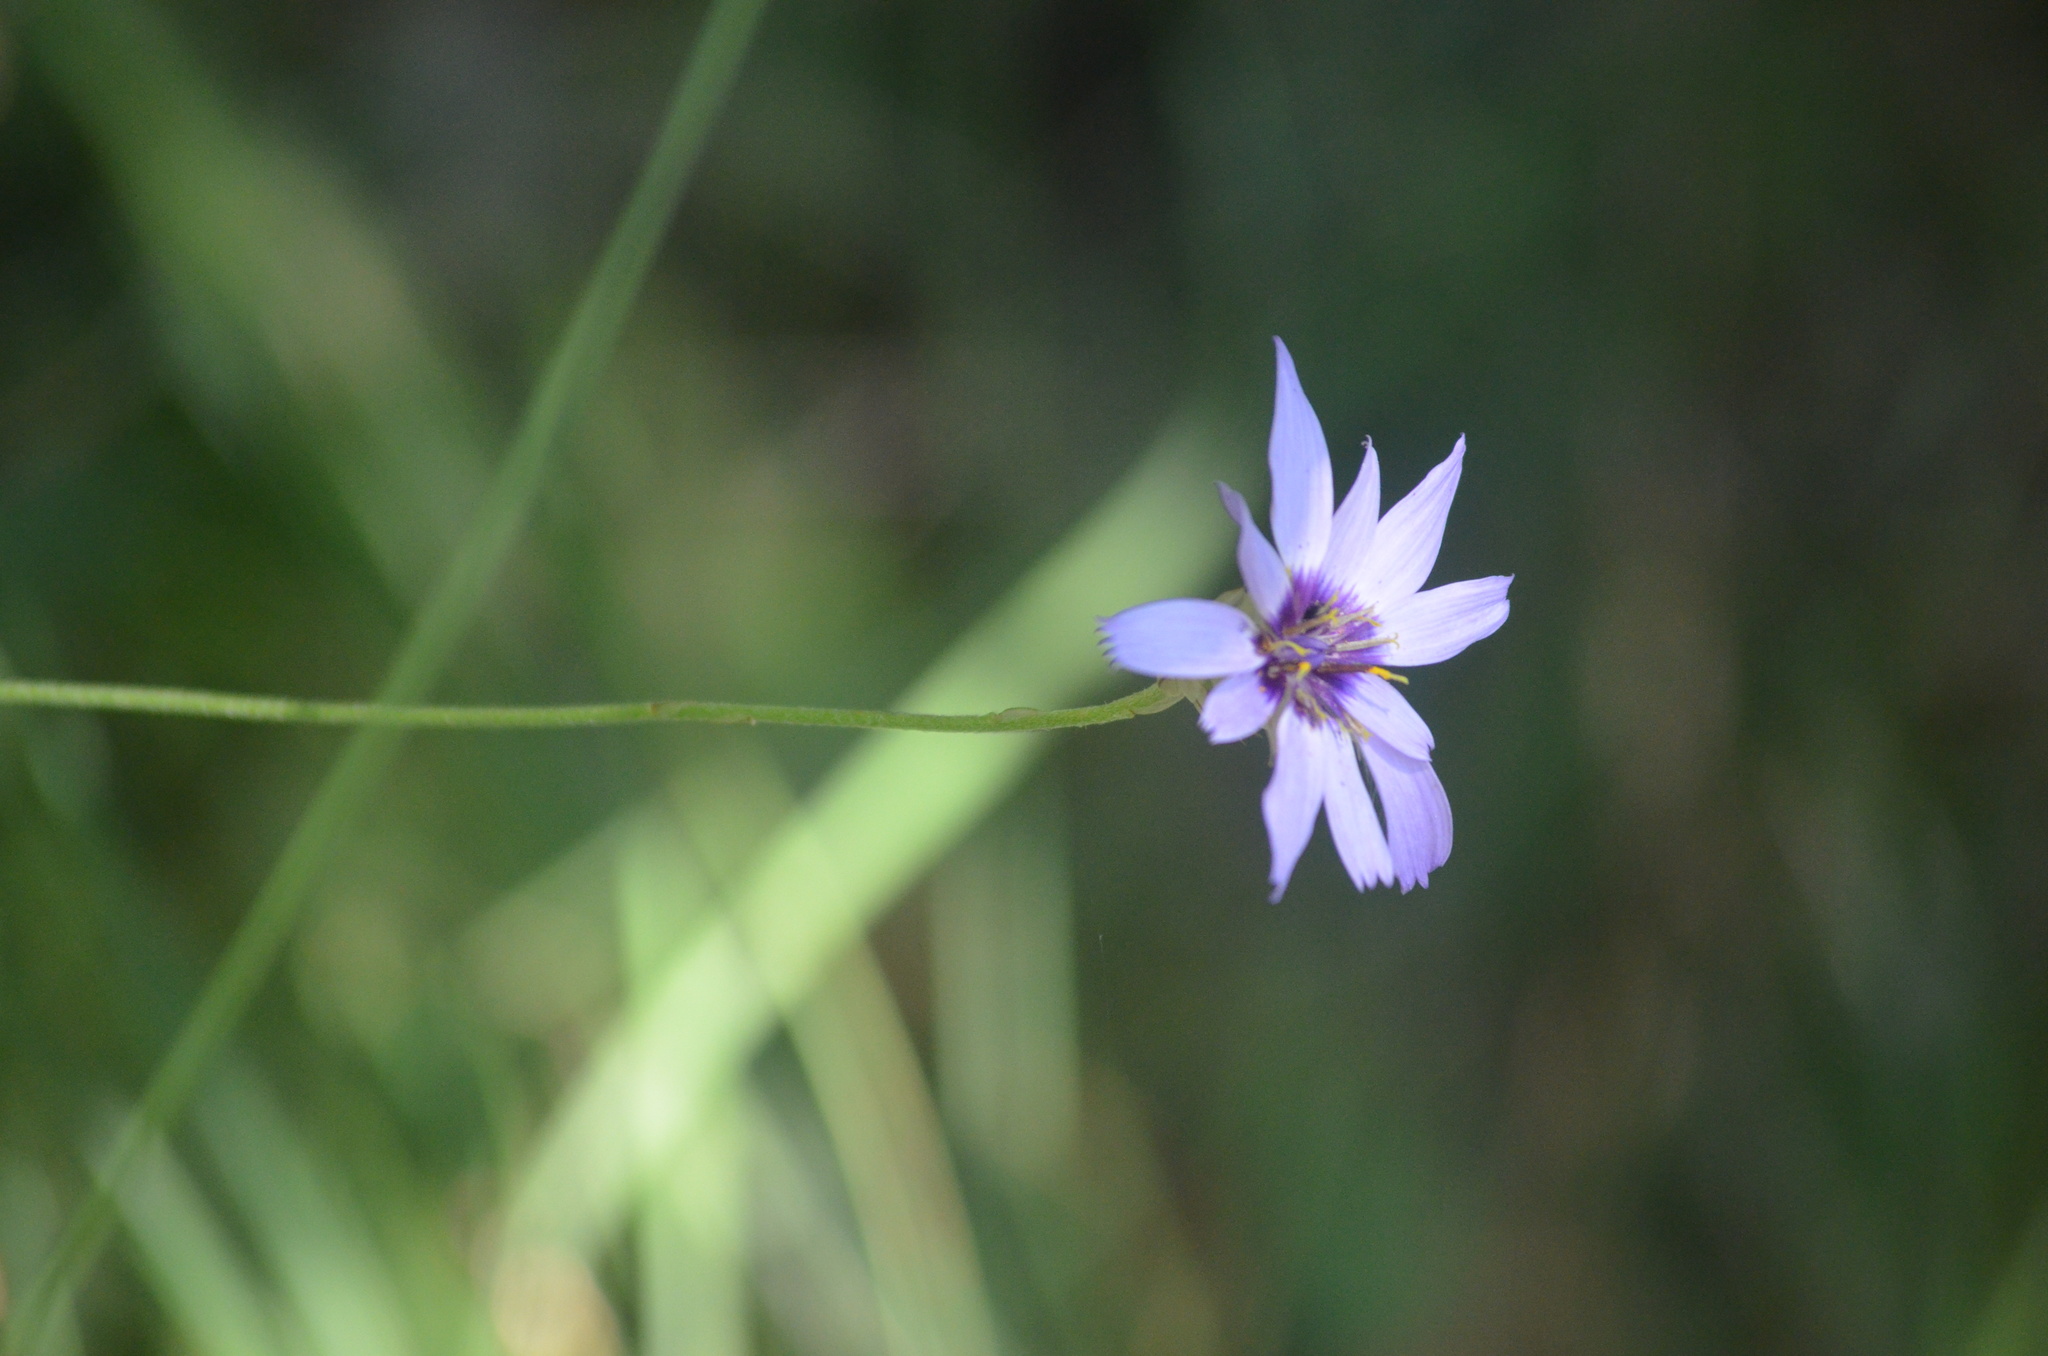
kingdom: Plantae
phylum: Tracheophyta
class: Magnoliopsida
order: Asterales
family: Asteraceae
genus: Catananche
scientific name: Catananche caerulea
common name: Blue cupidone
